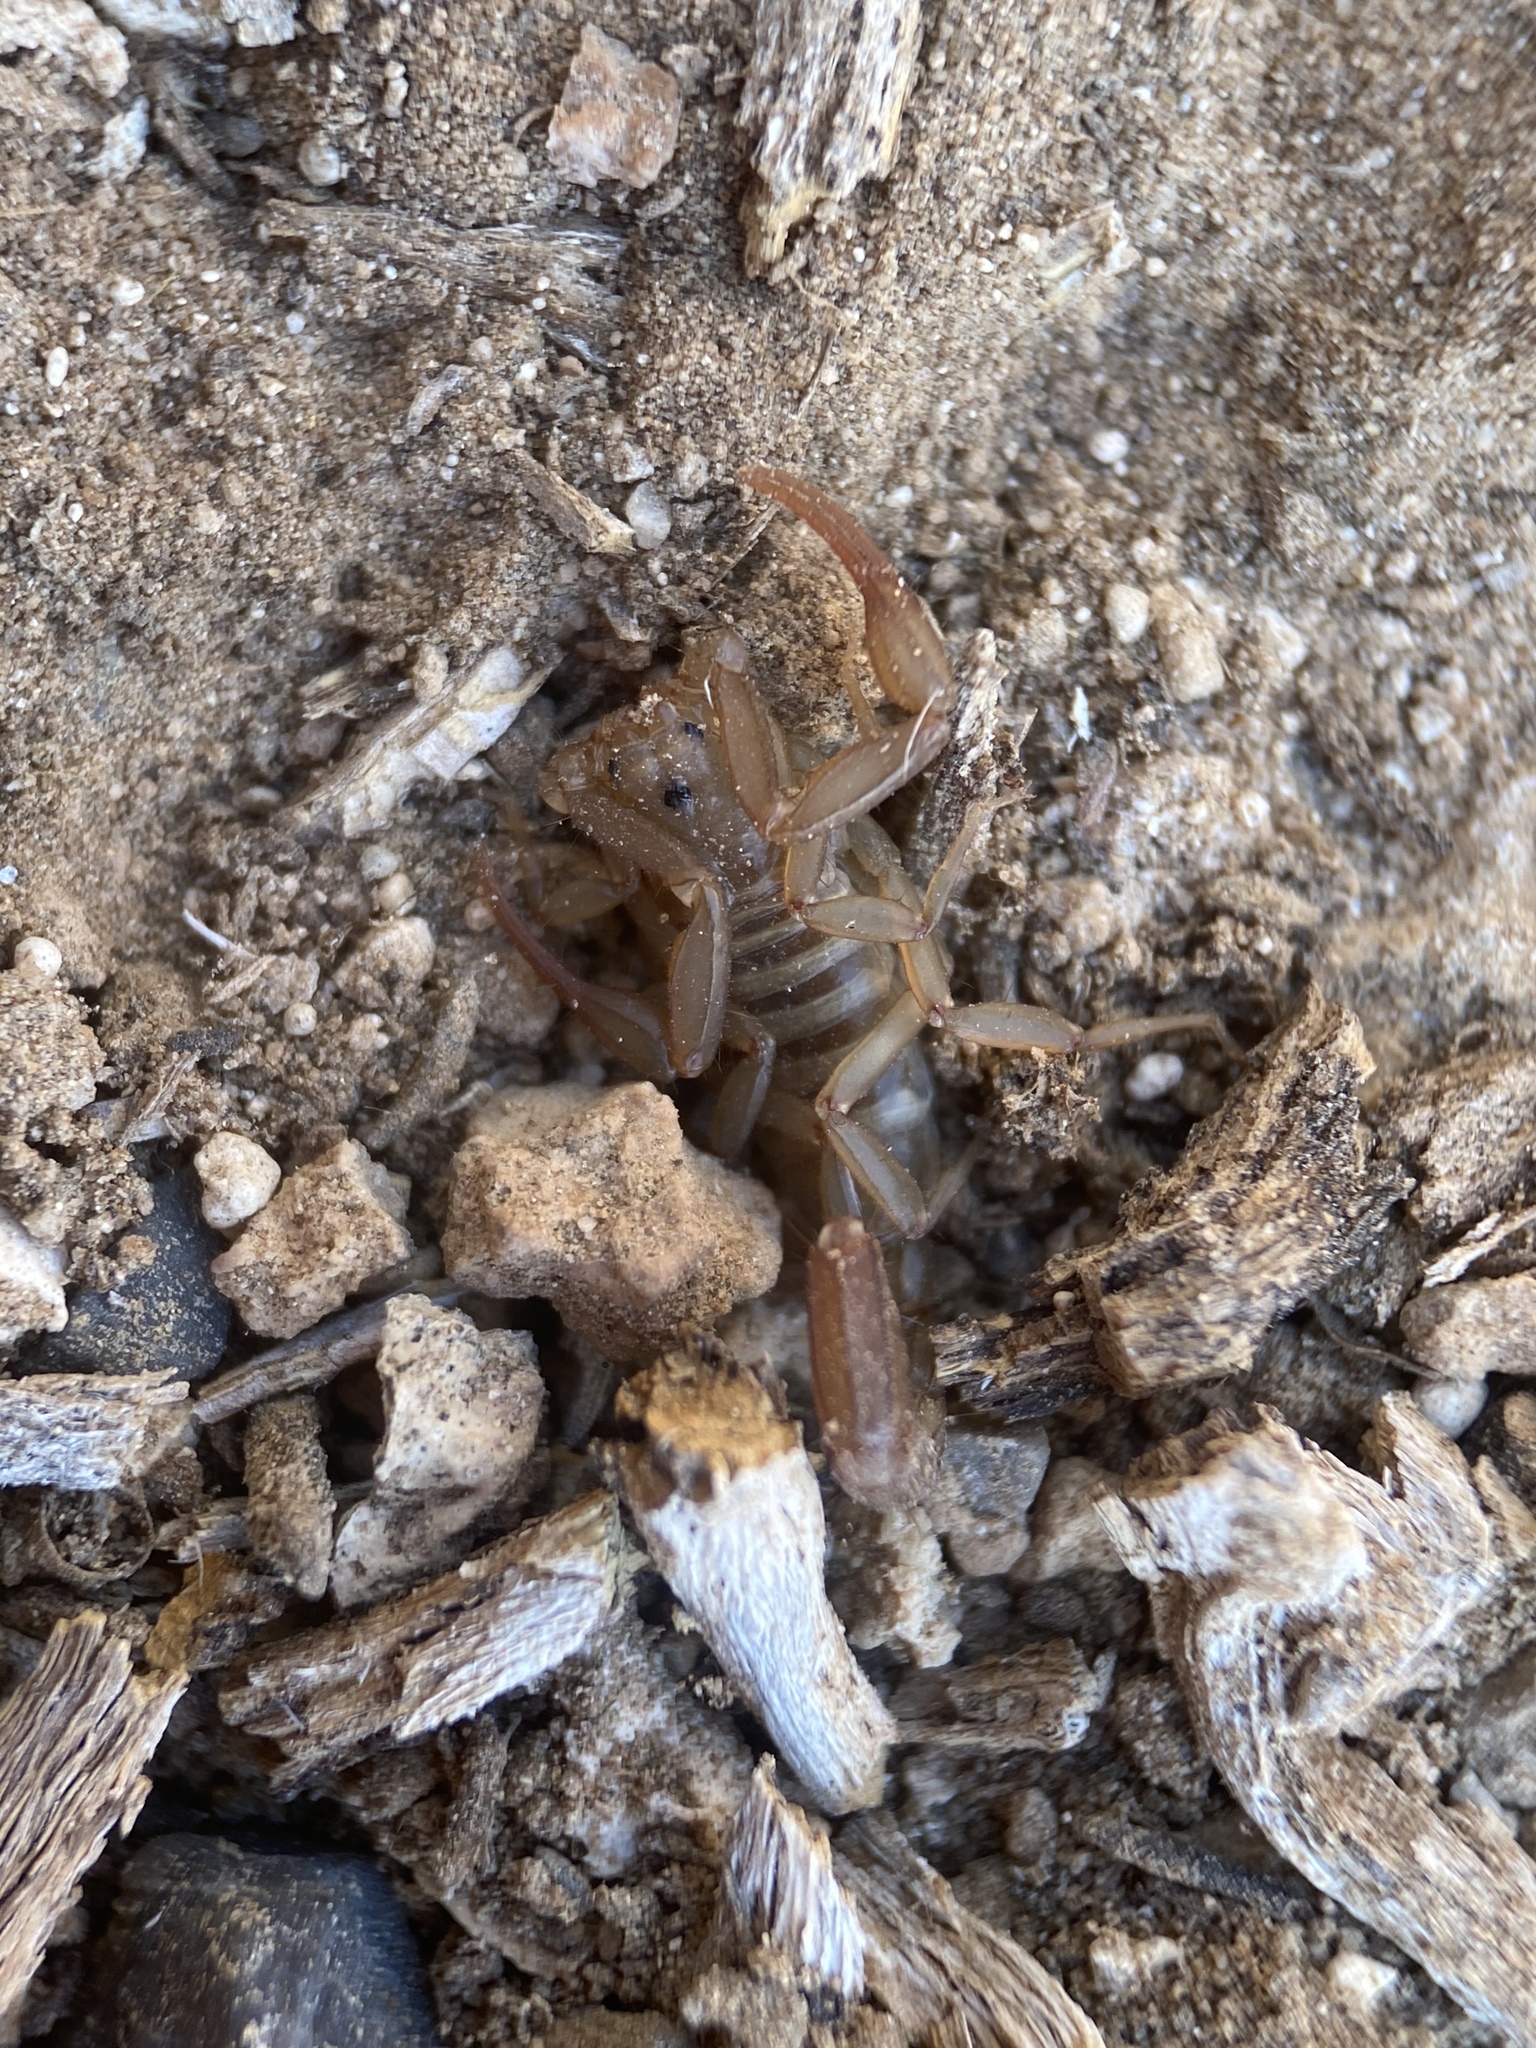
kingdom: Animalia
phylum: Arthropoda
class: Arachnida
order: Scorpiones
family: Vaejovidae
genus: Serradigitus
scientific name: Serradigitus wupatkiensis
